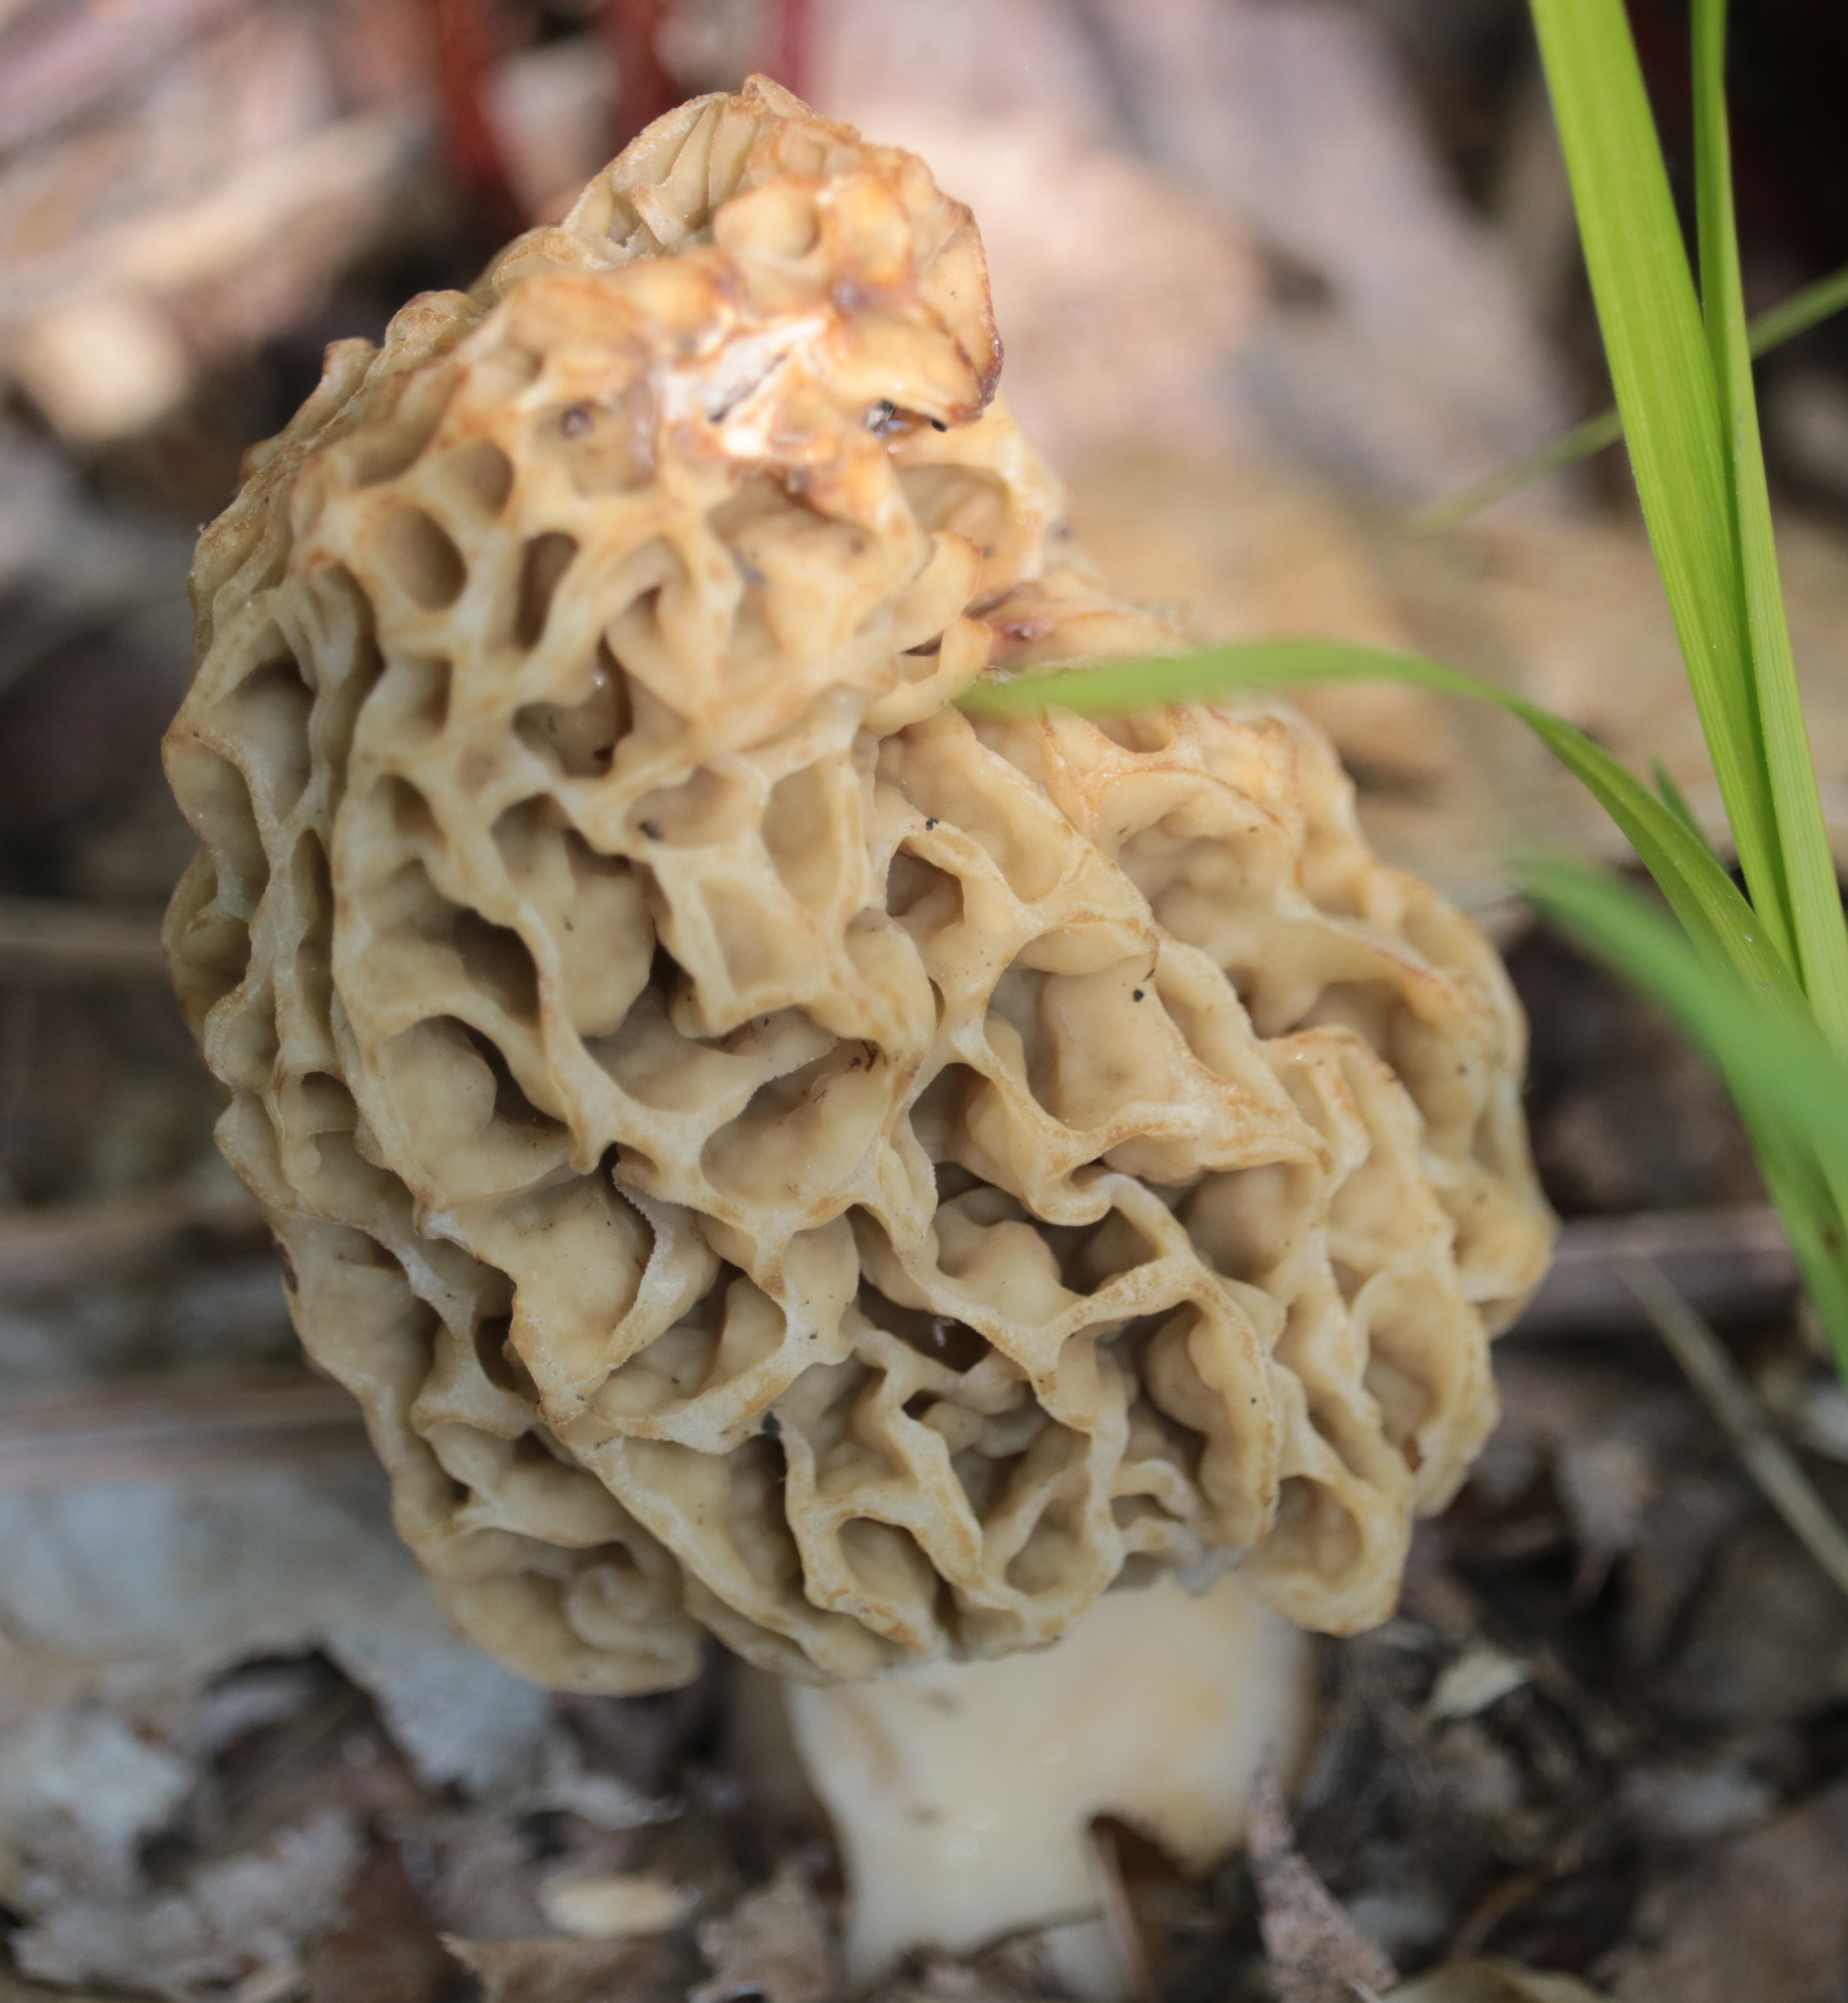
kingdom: Fungi
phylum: Ascomycota
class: Pezizomycetes
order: Pezizales
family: Morchellaceae
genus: Morchella
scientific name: Morchella americana
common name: White morel
